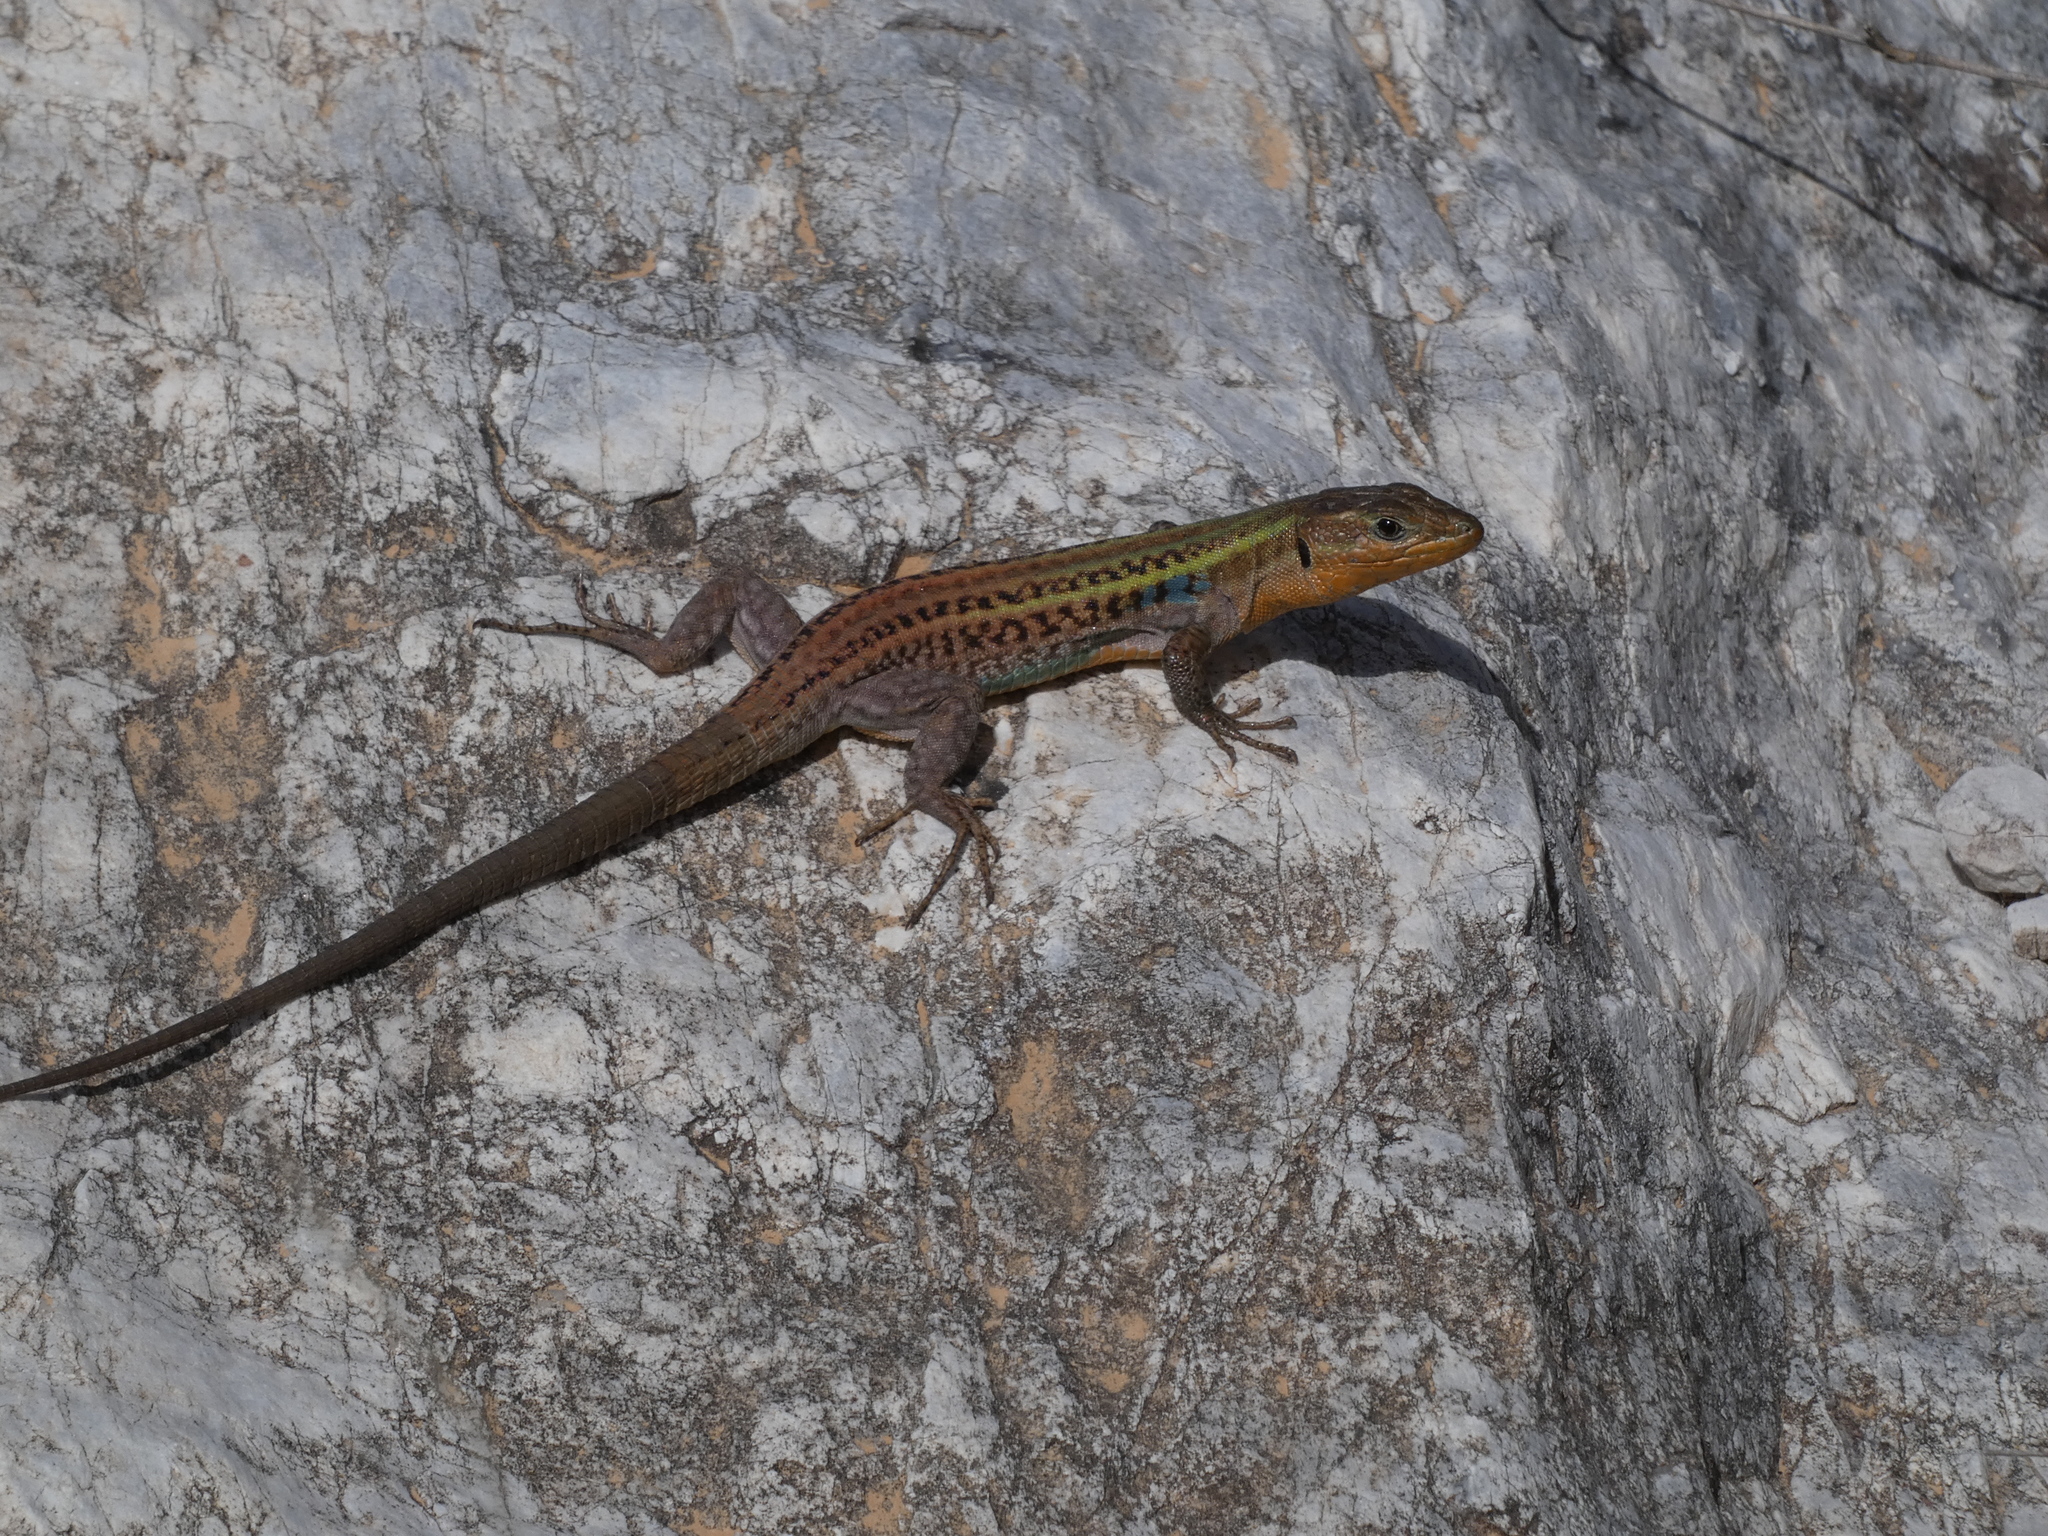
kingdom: Animalia
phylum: Chordata
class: Squamata
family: Lacertidae
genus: Podarcis
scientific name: Podarcis peloponnesiacus
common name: Peloponnese wall lizard
